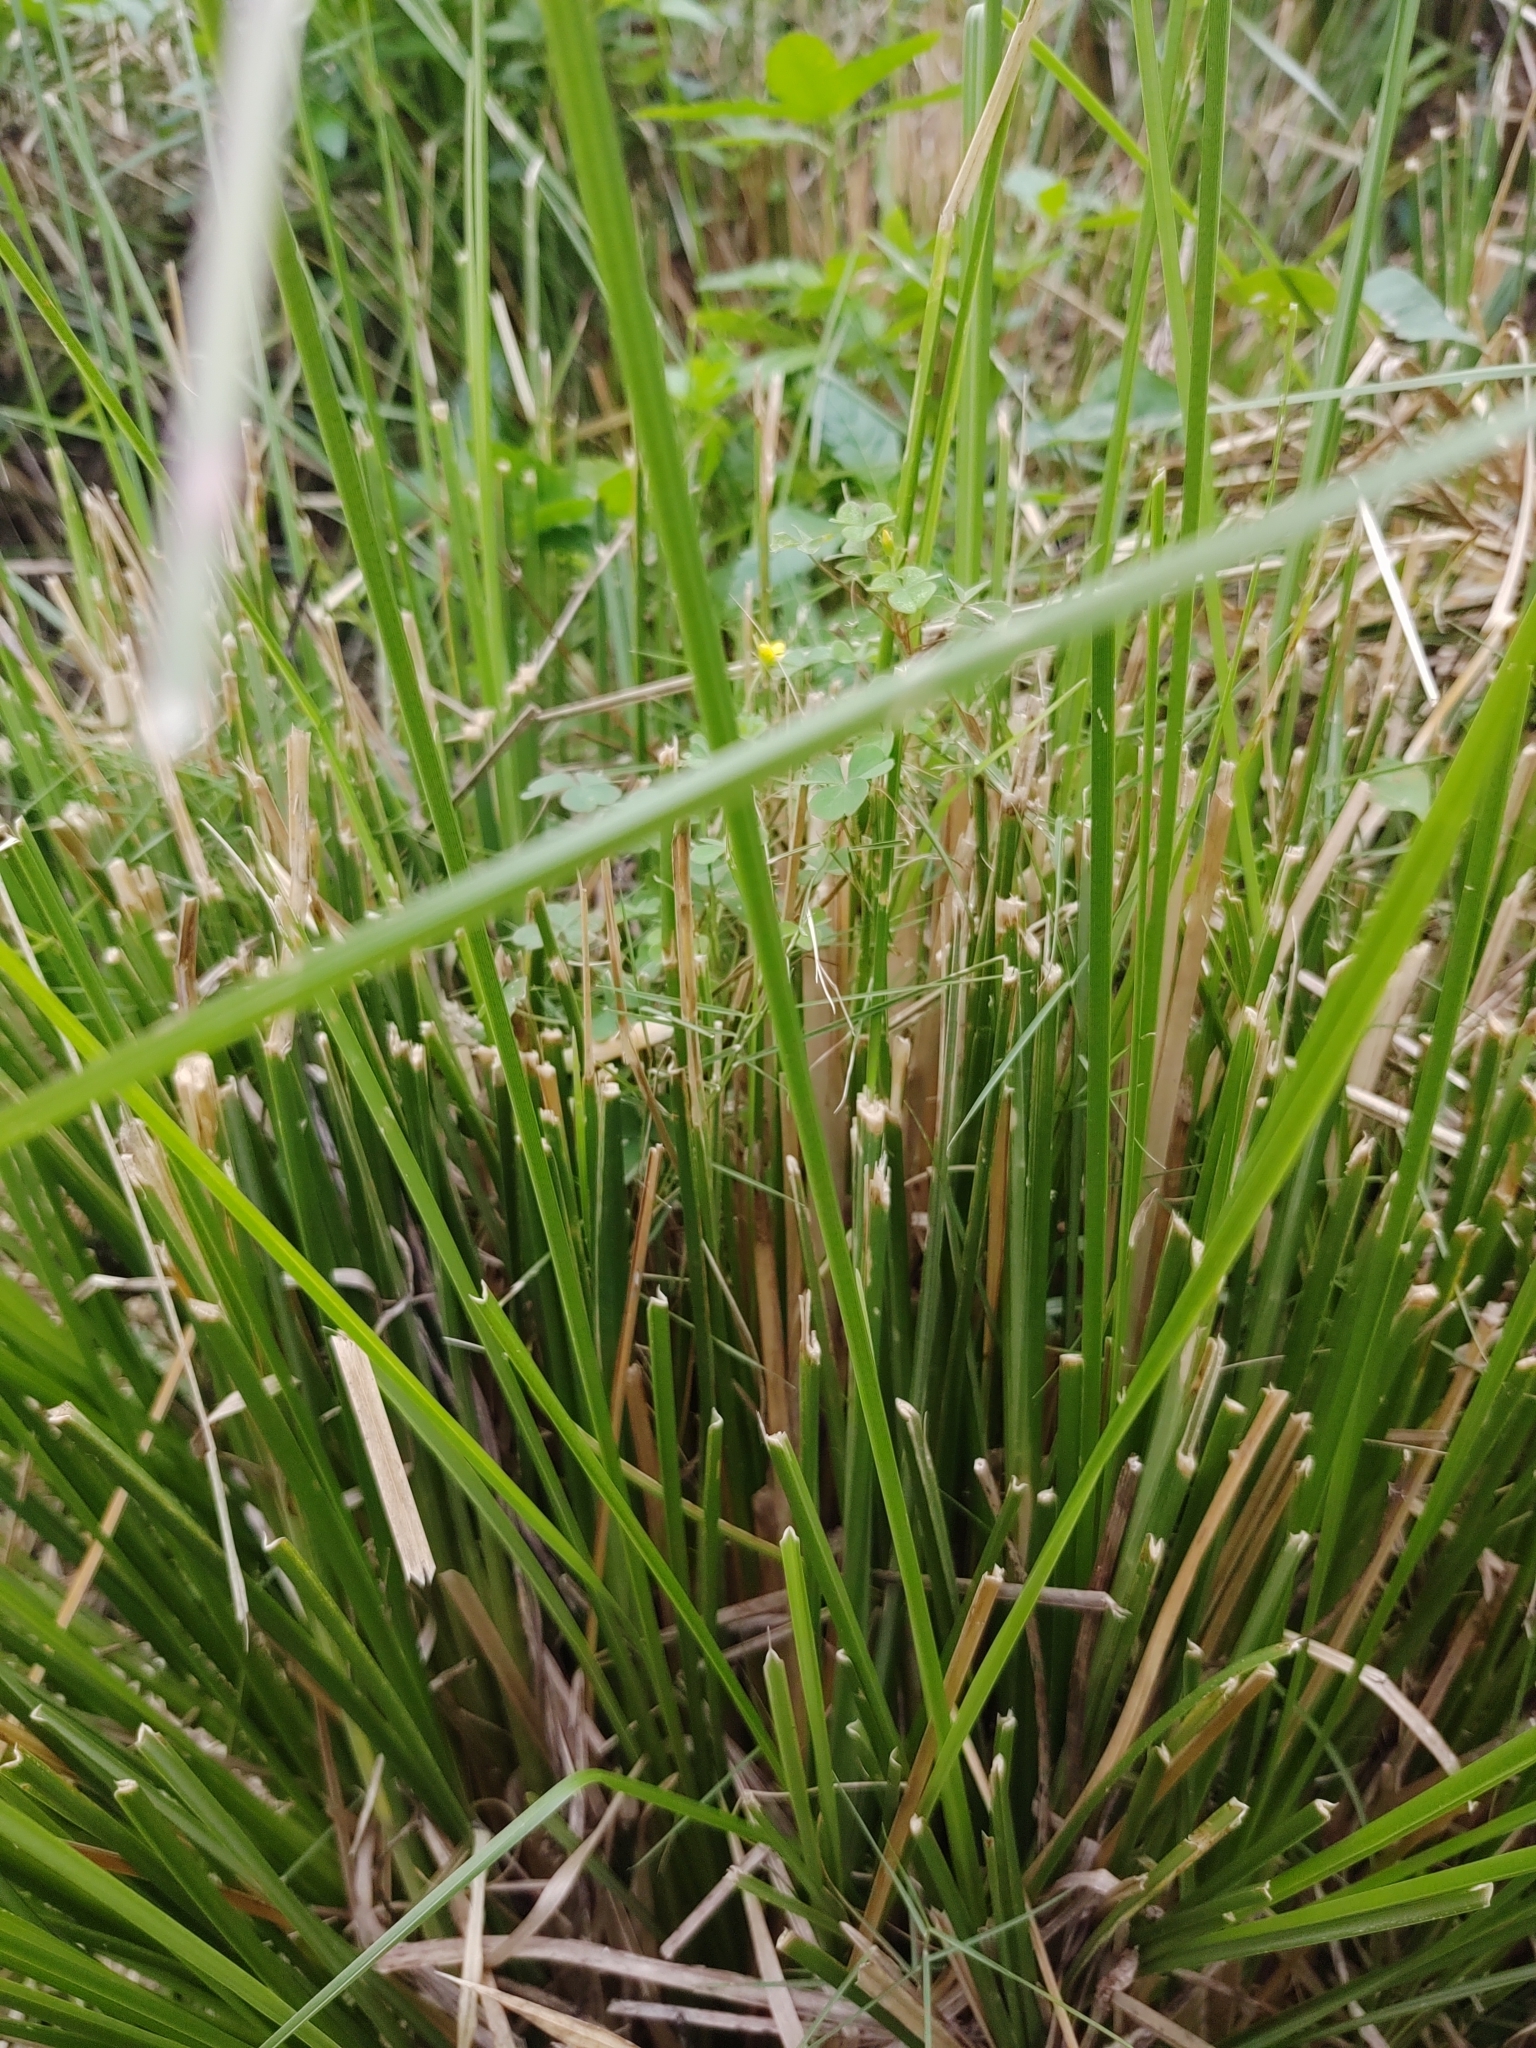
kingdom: Plantae
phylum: Tracheophyta
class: Magnoliopsida
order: Oxalidales
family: Oxalidaceae
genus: Oxalis
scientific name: Oxalis corniculata
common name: Procumbent yellow-sorrel
